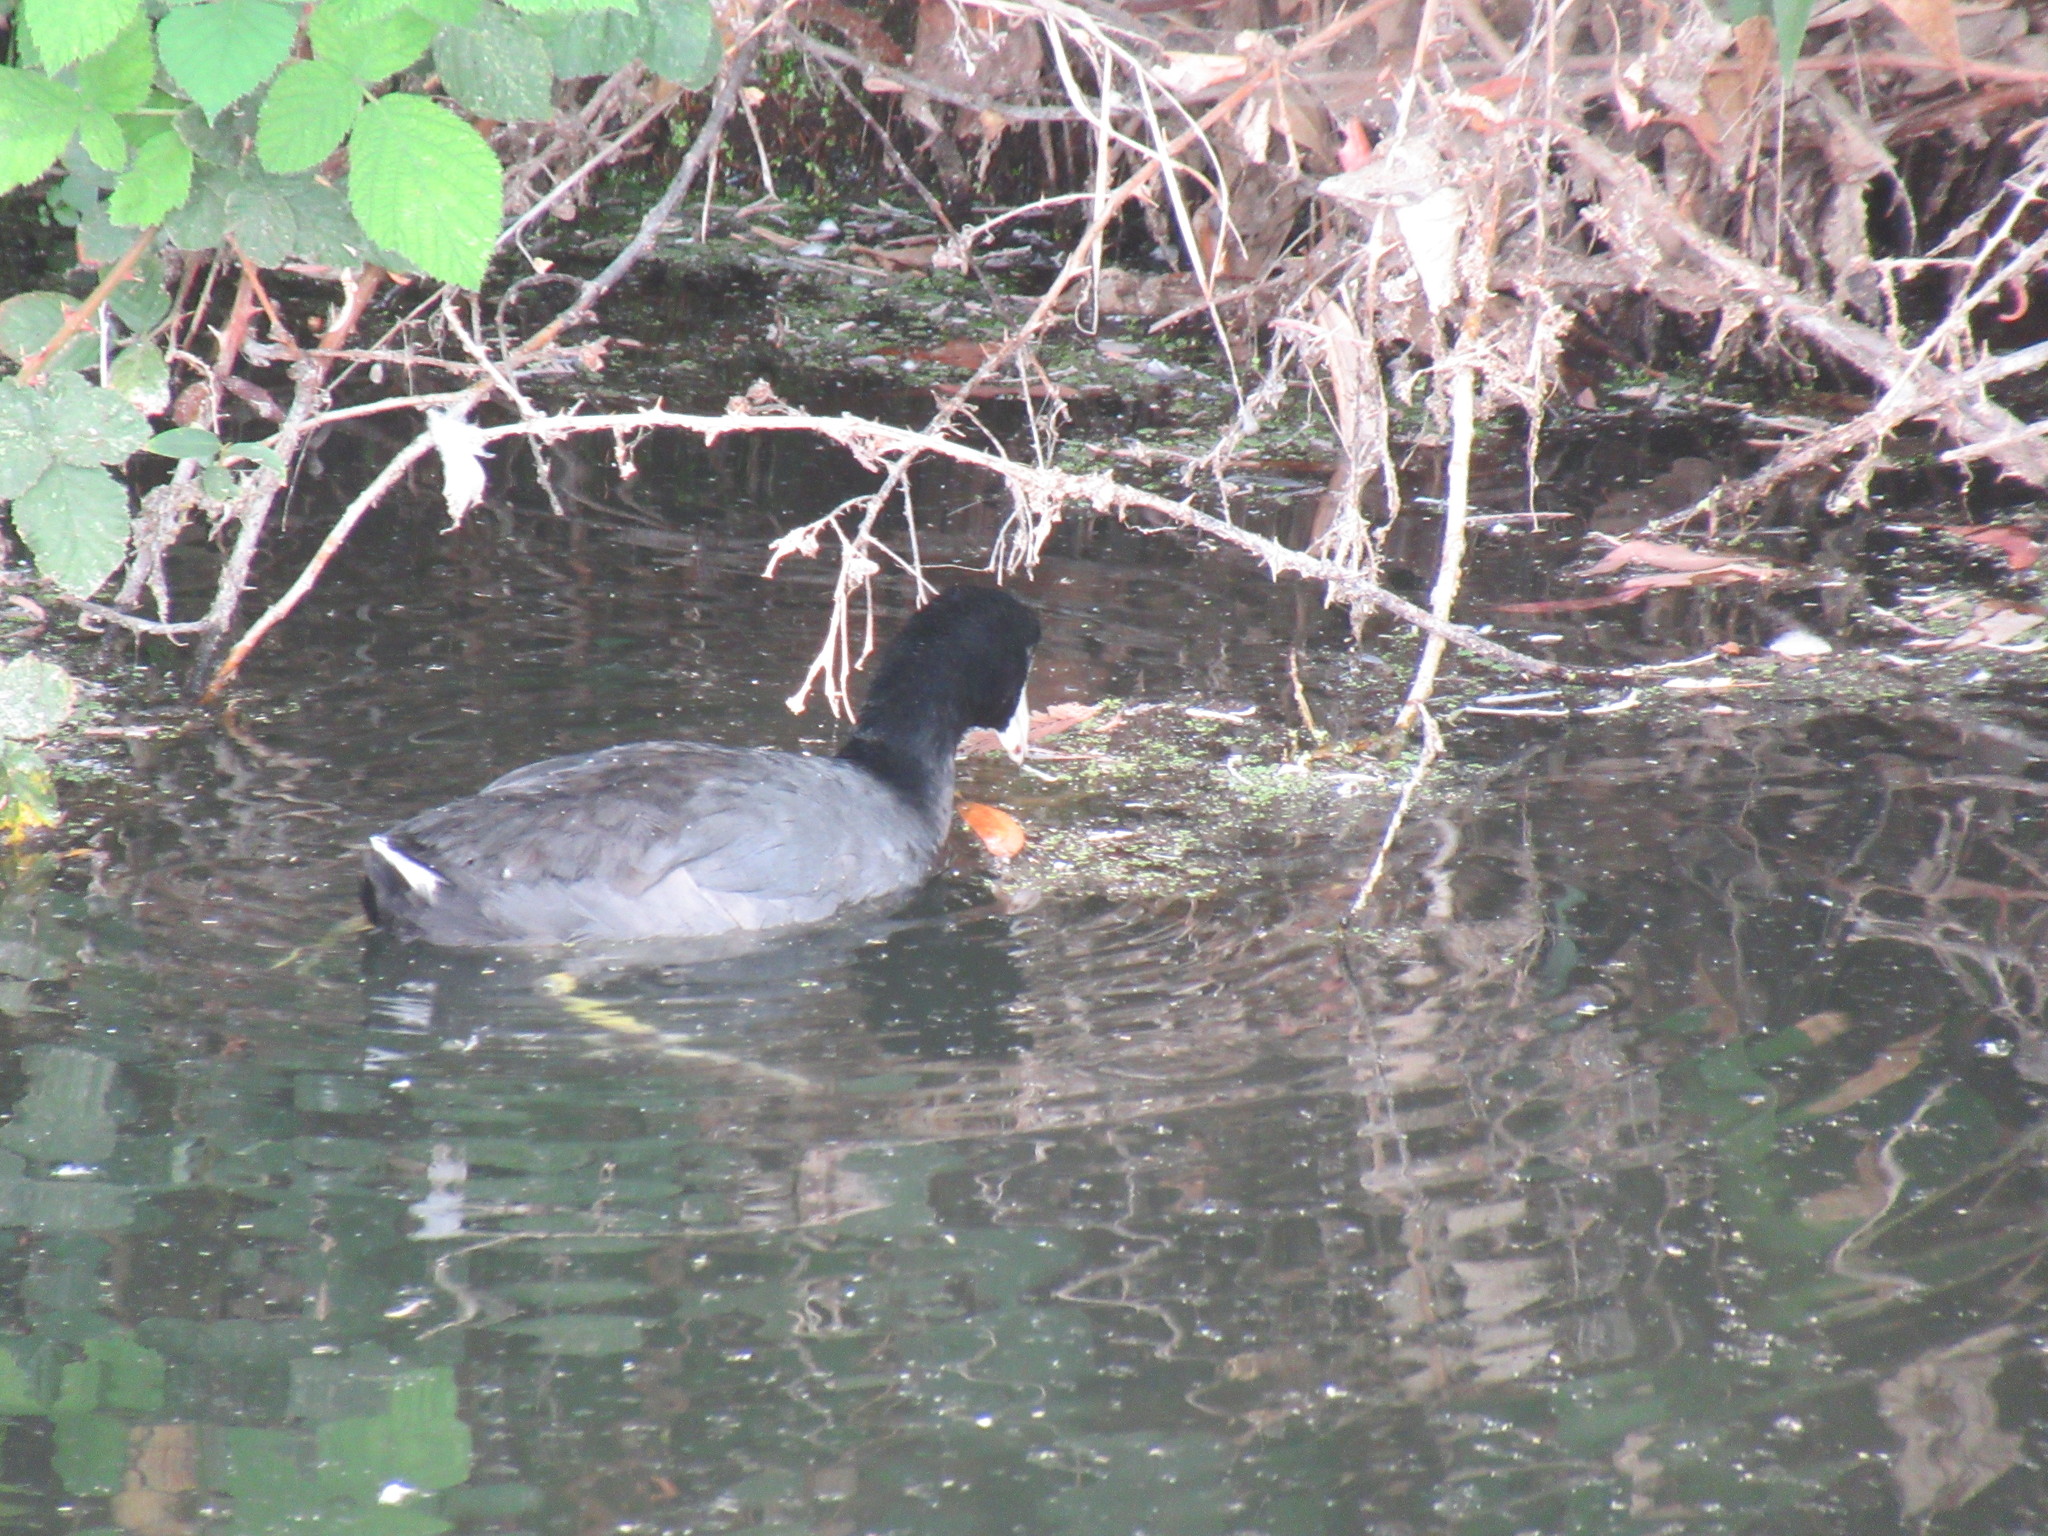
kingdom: Animalia
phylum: Chordata
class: Aves
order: Gruiformes
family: Rallidae
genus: Fulica
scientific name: Fulica americana
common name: American coot
